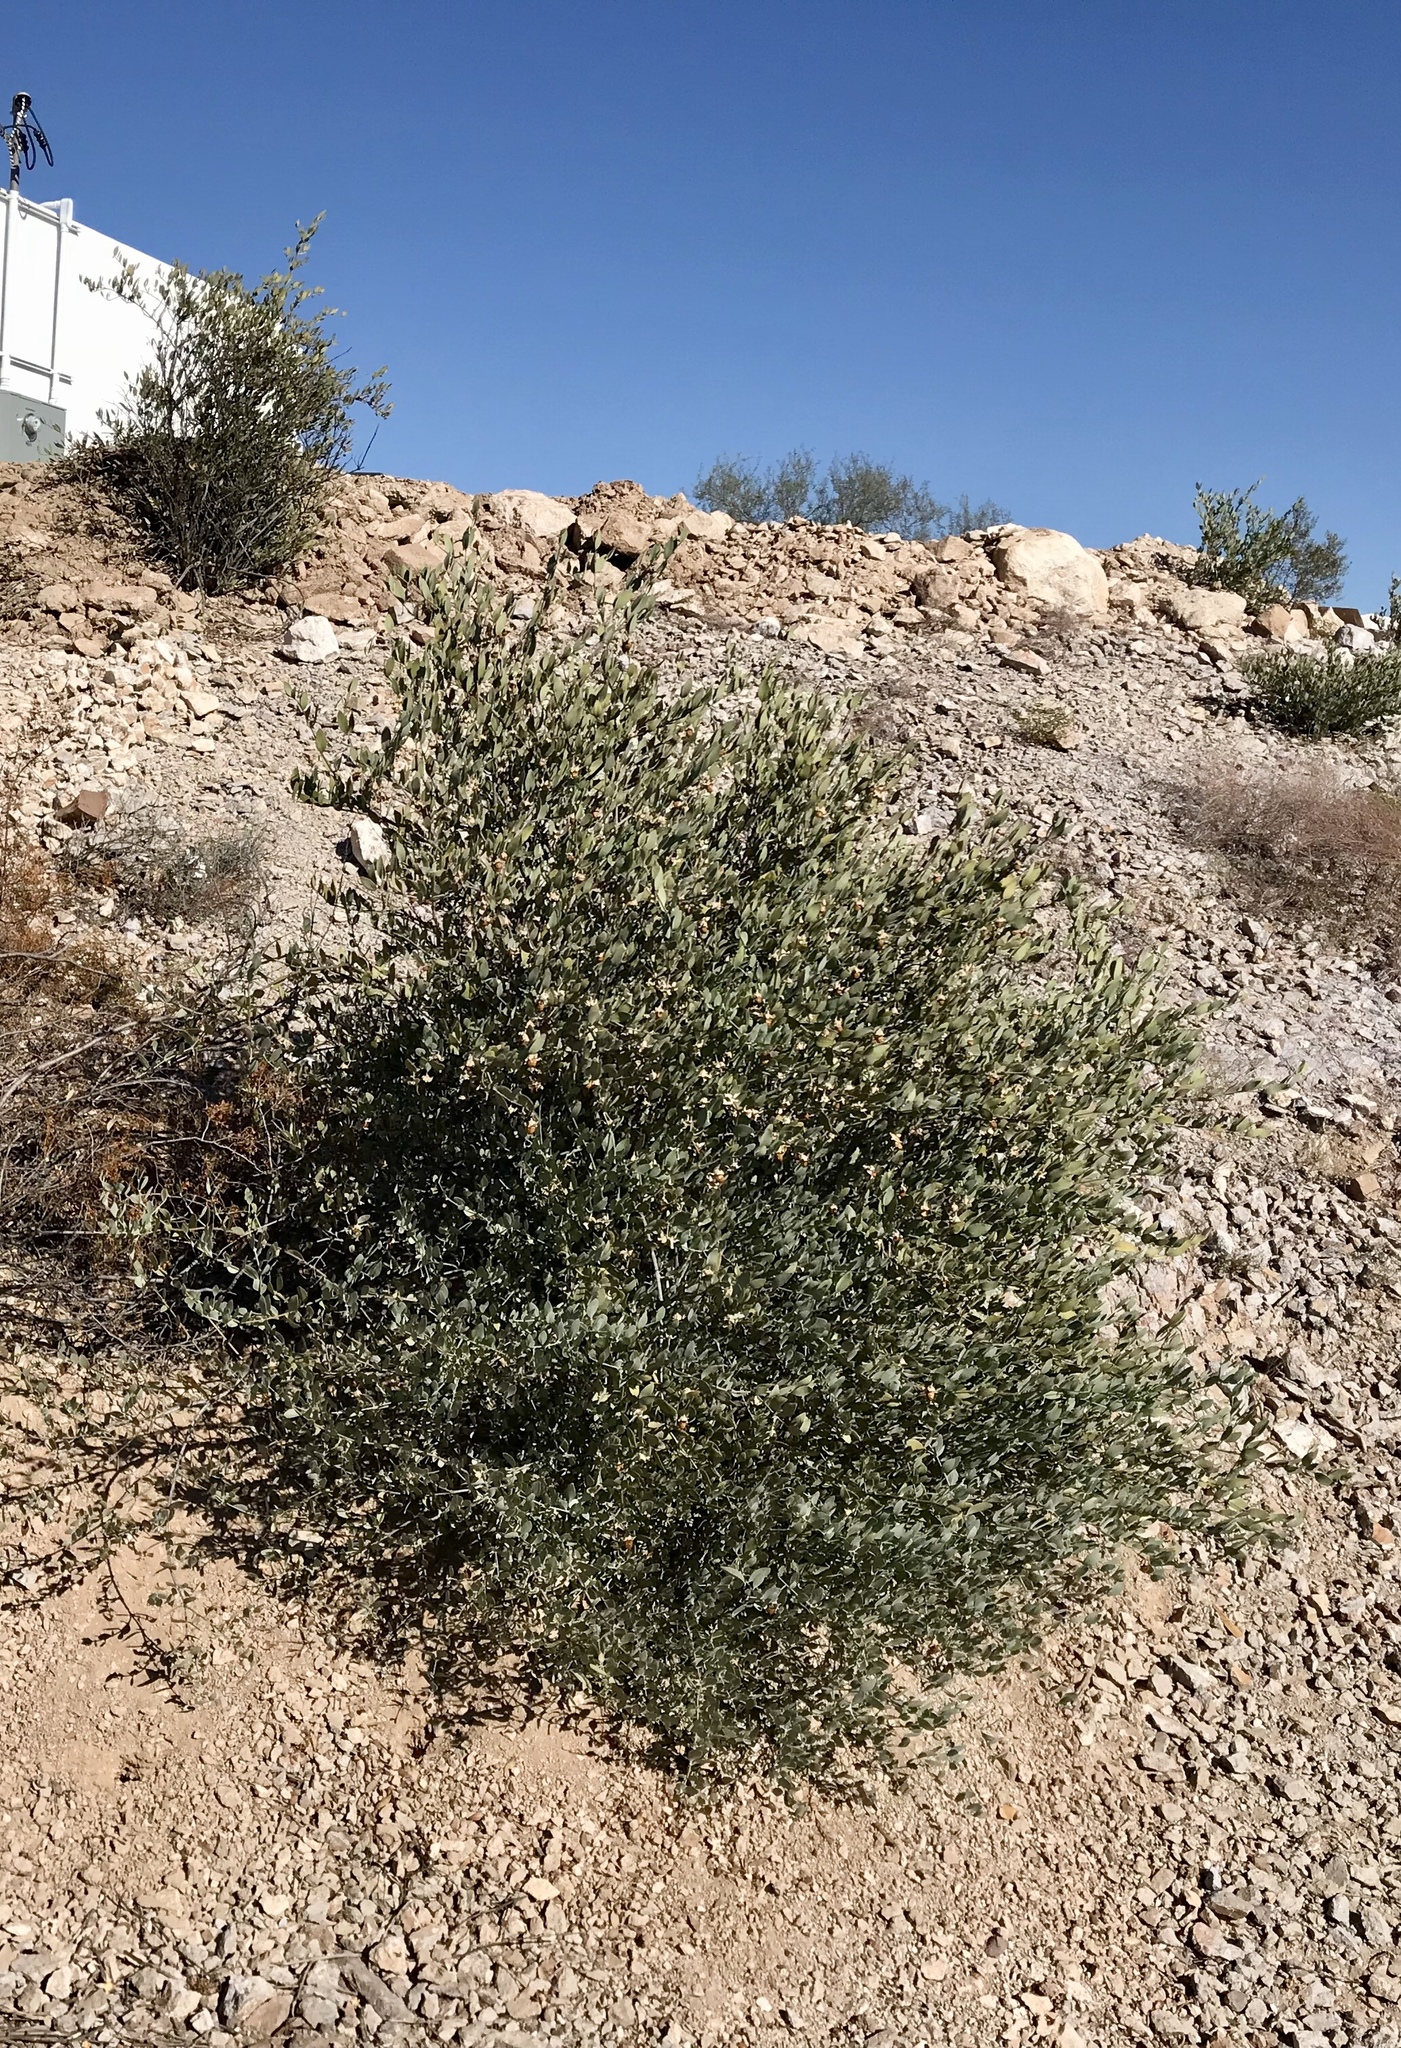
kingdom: Plantae
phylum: Tracheophyta
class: Magnoliopsida
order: Caryophyllales
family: Simmondsiaceae
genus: Simmondsia
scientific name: Simmondsia chinensis
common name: Jojoba
